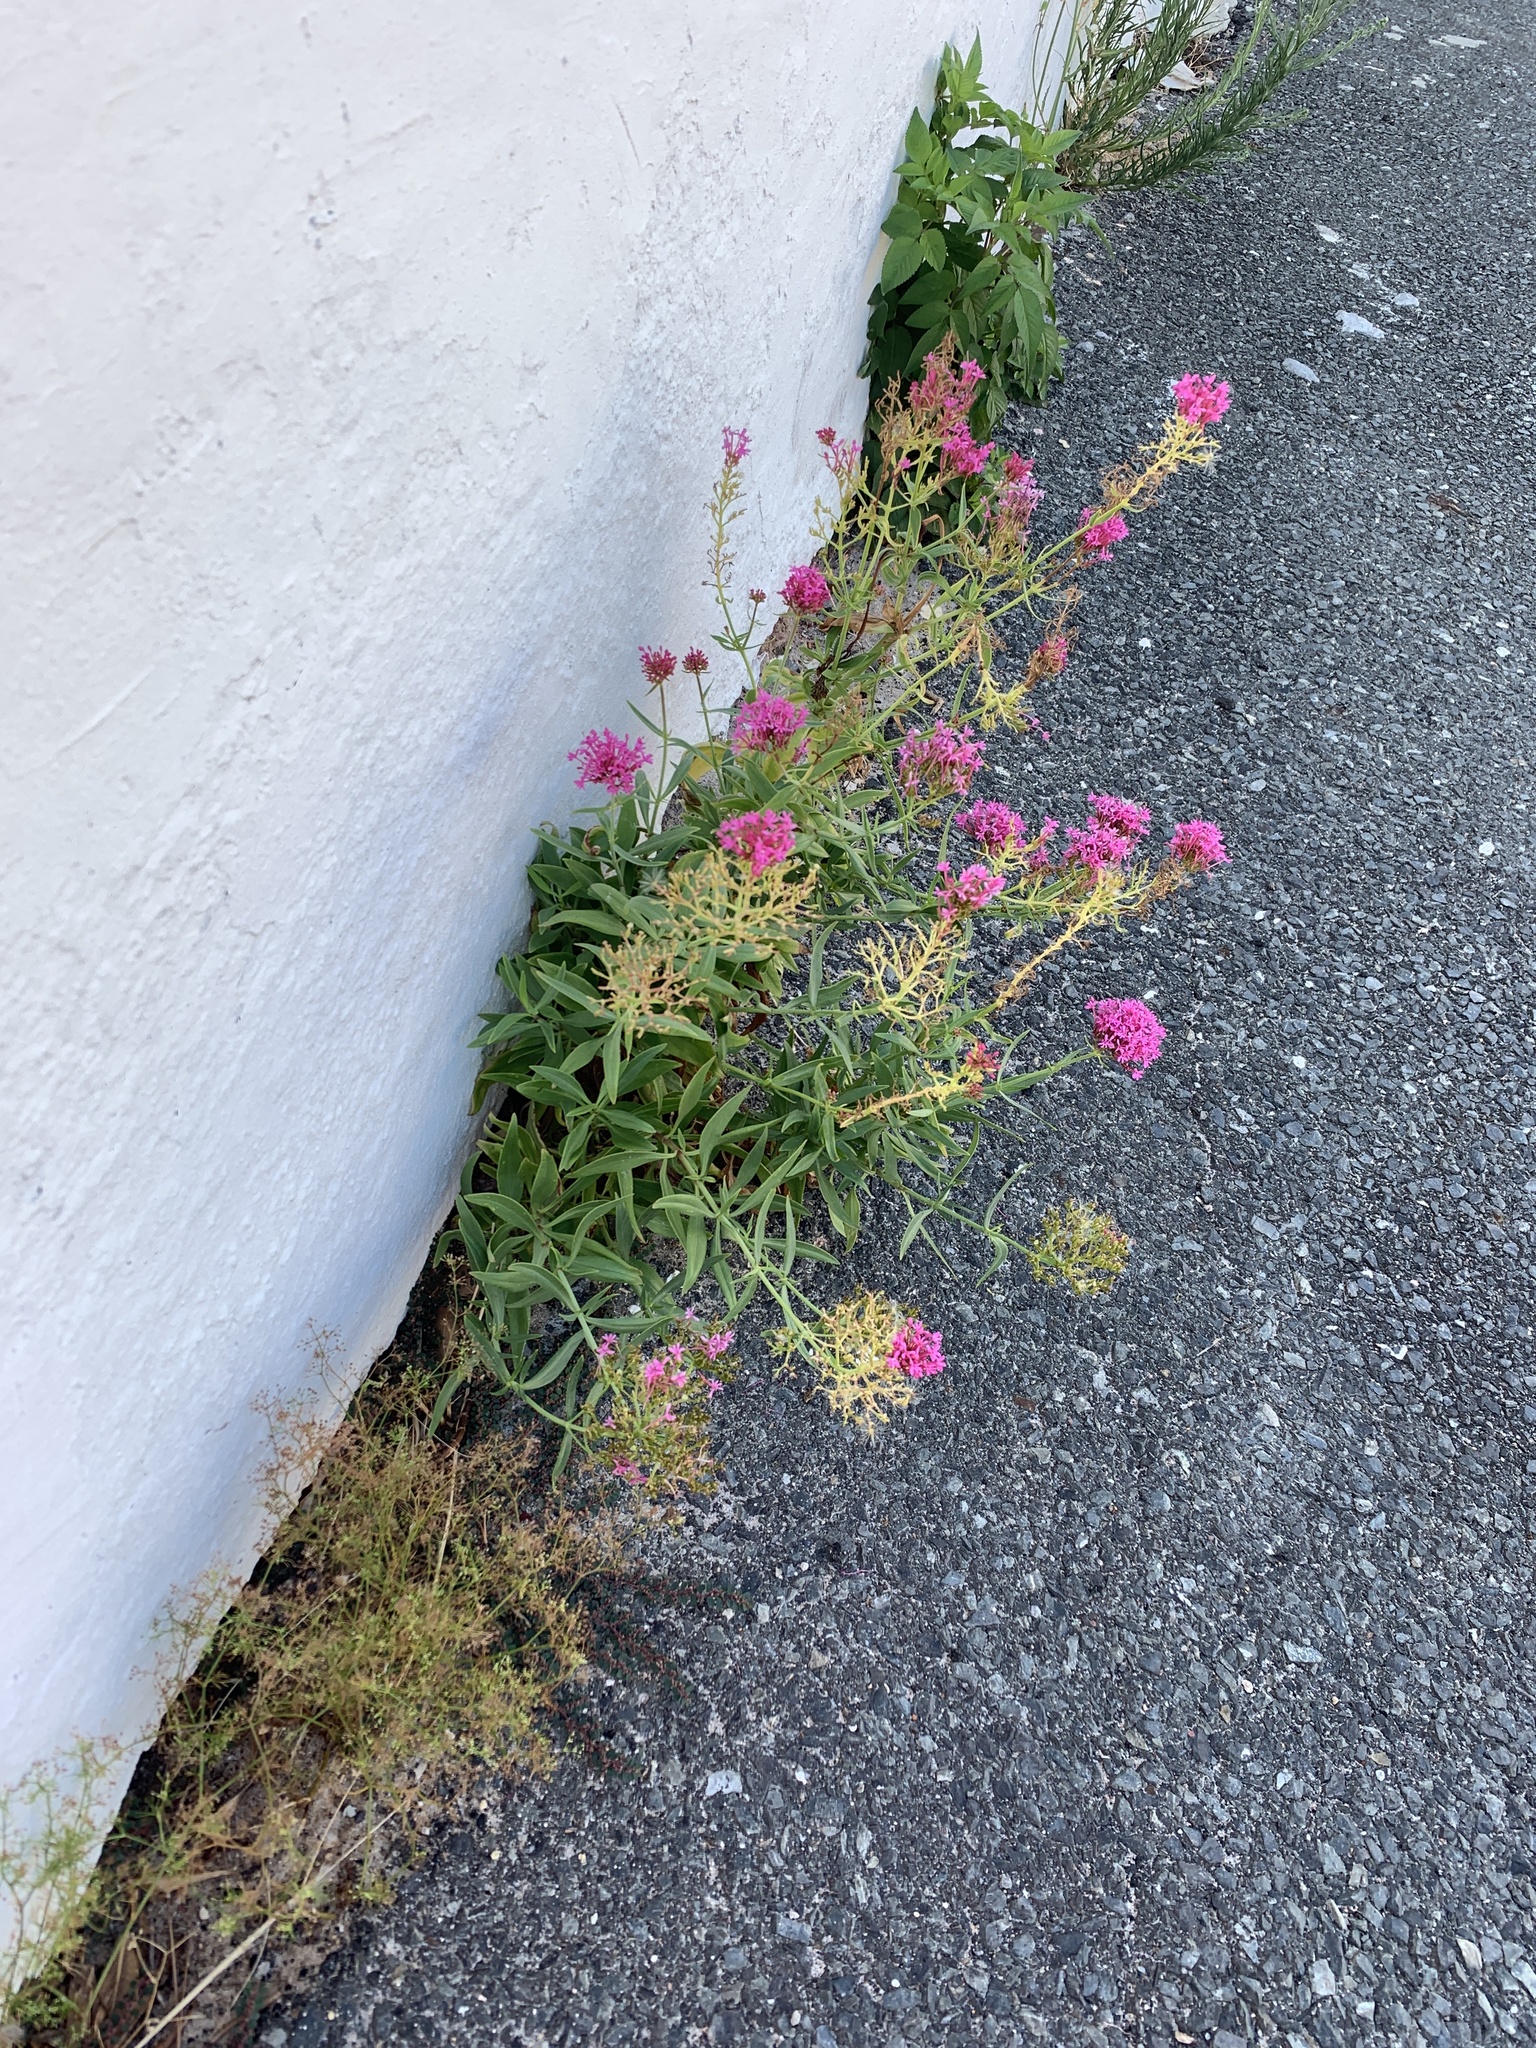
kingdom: Plantae
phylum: Tracheophyta
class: Magnoliopsida
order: Dipsacales
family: Caprifoliaceae
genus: Centranthus
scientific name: Centranthus ruber
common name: Red valerian
